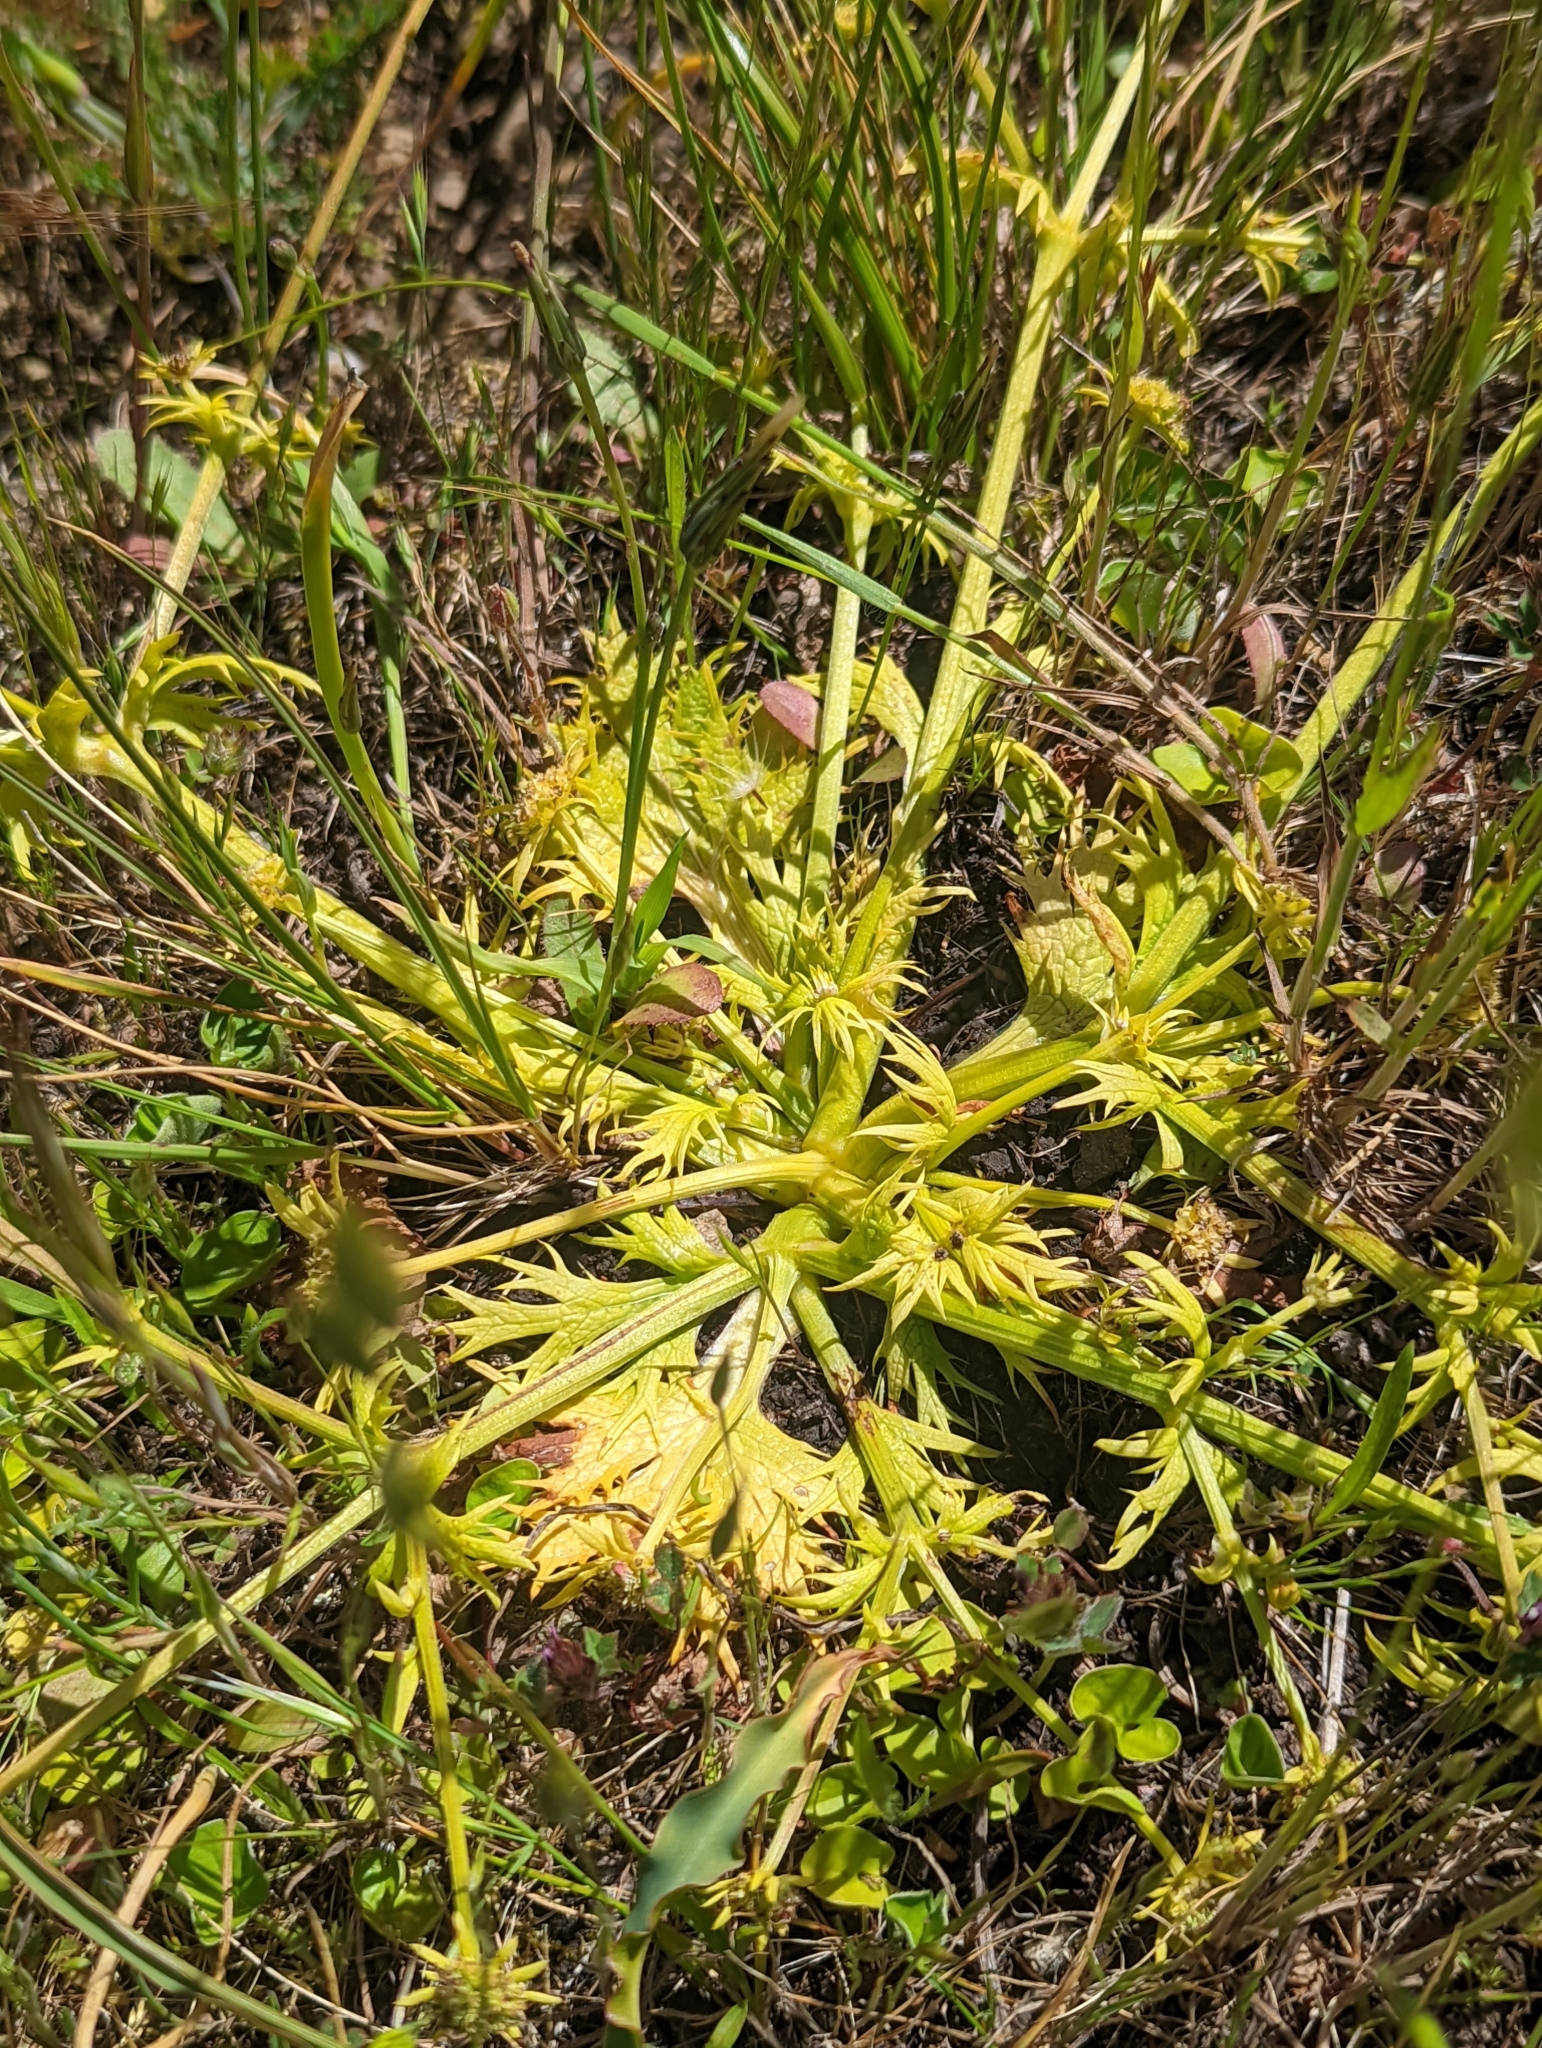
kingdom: Plantae
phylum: Tracheophyta
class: Magnoliopsida
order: Apiales
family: Apiaceae
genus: Sanicula
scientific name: Sanicula arctopoides
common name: Footsteps-of-spring
